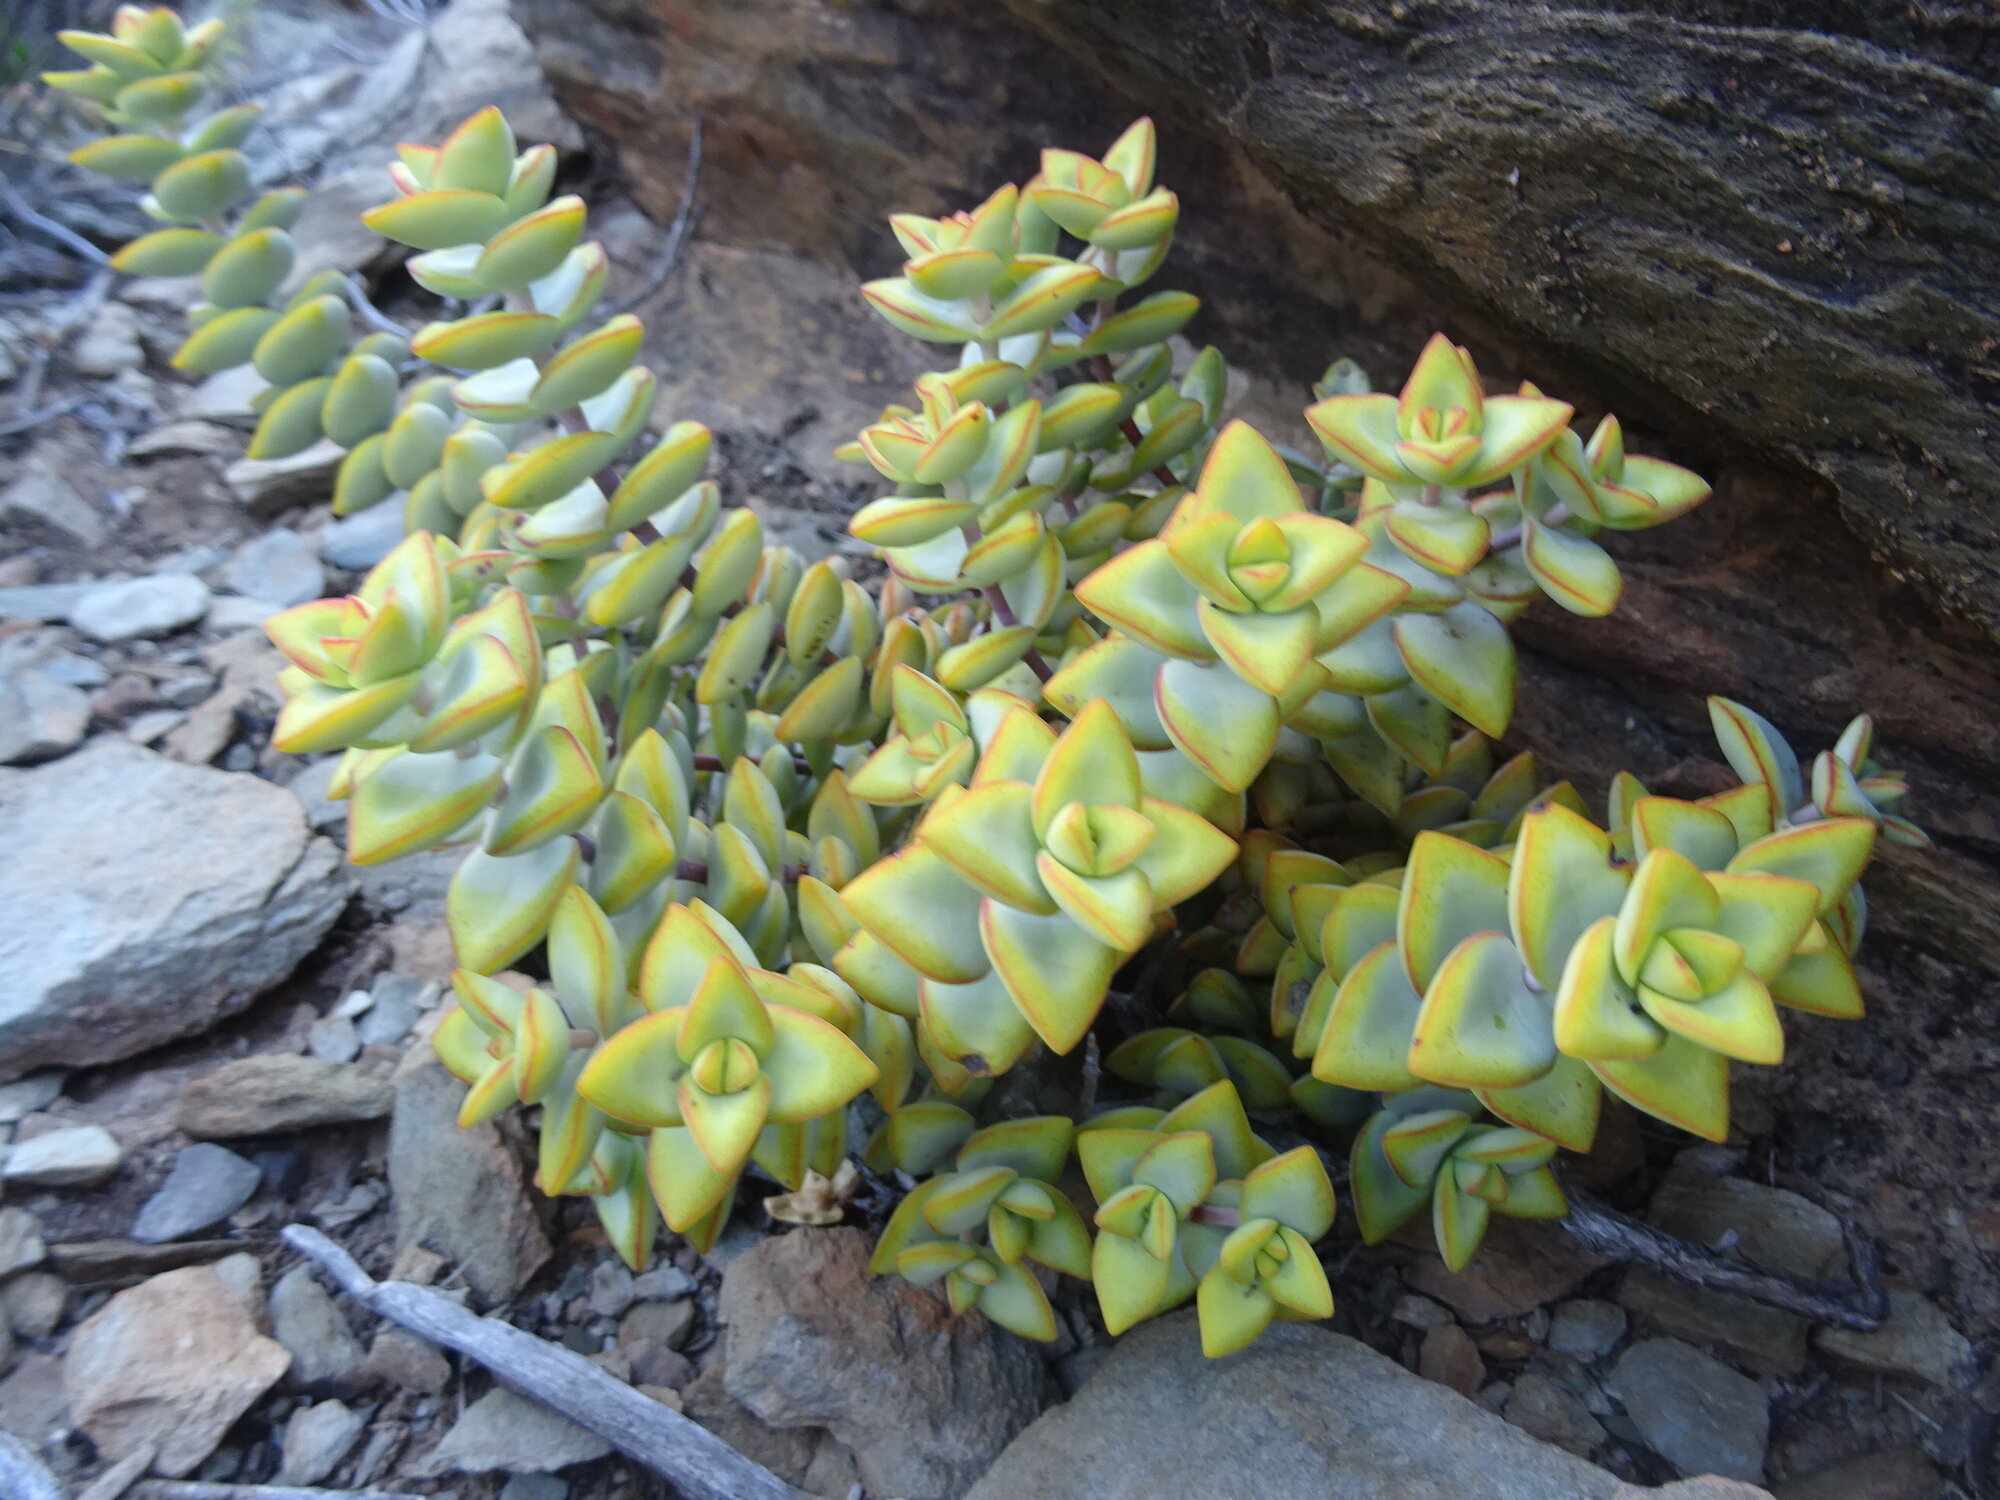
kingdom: Plantae
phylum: Tracheophyta
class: Magnoliopsida
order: Saxifragales
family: Crassulaceae
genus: Crassula
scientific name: Crassula rupestris
